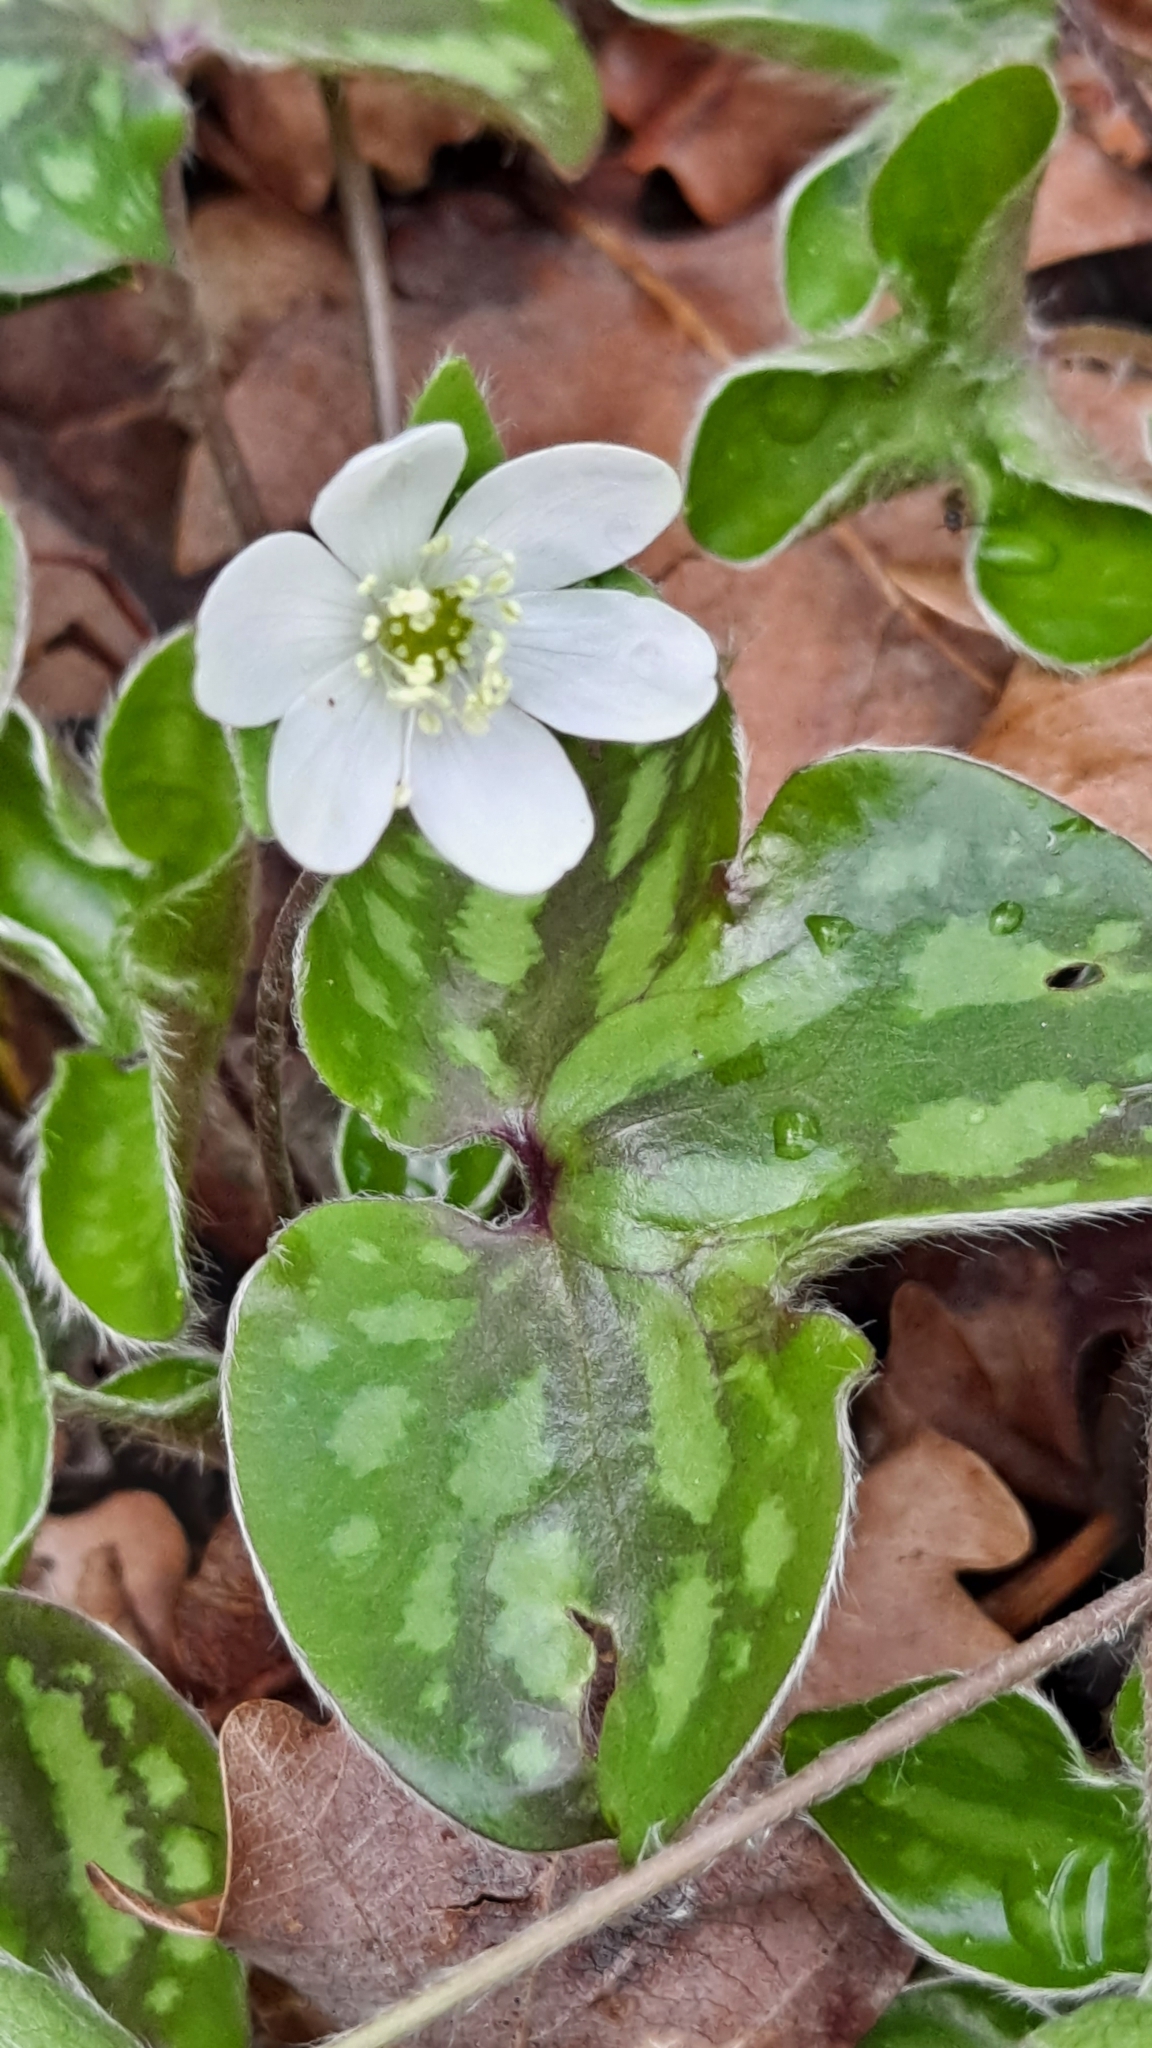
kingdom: Plantae
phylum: Tracheophyta
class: Magnoliopsida
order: Ranunculales
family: Ranunculaceae
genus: Hepatica
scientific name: Hepatica nobilis
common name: Liverleaf
